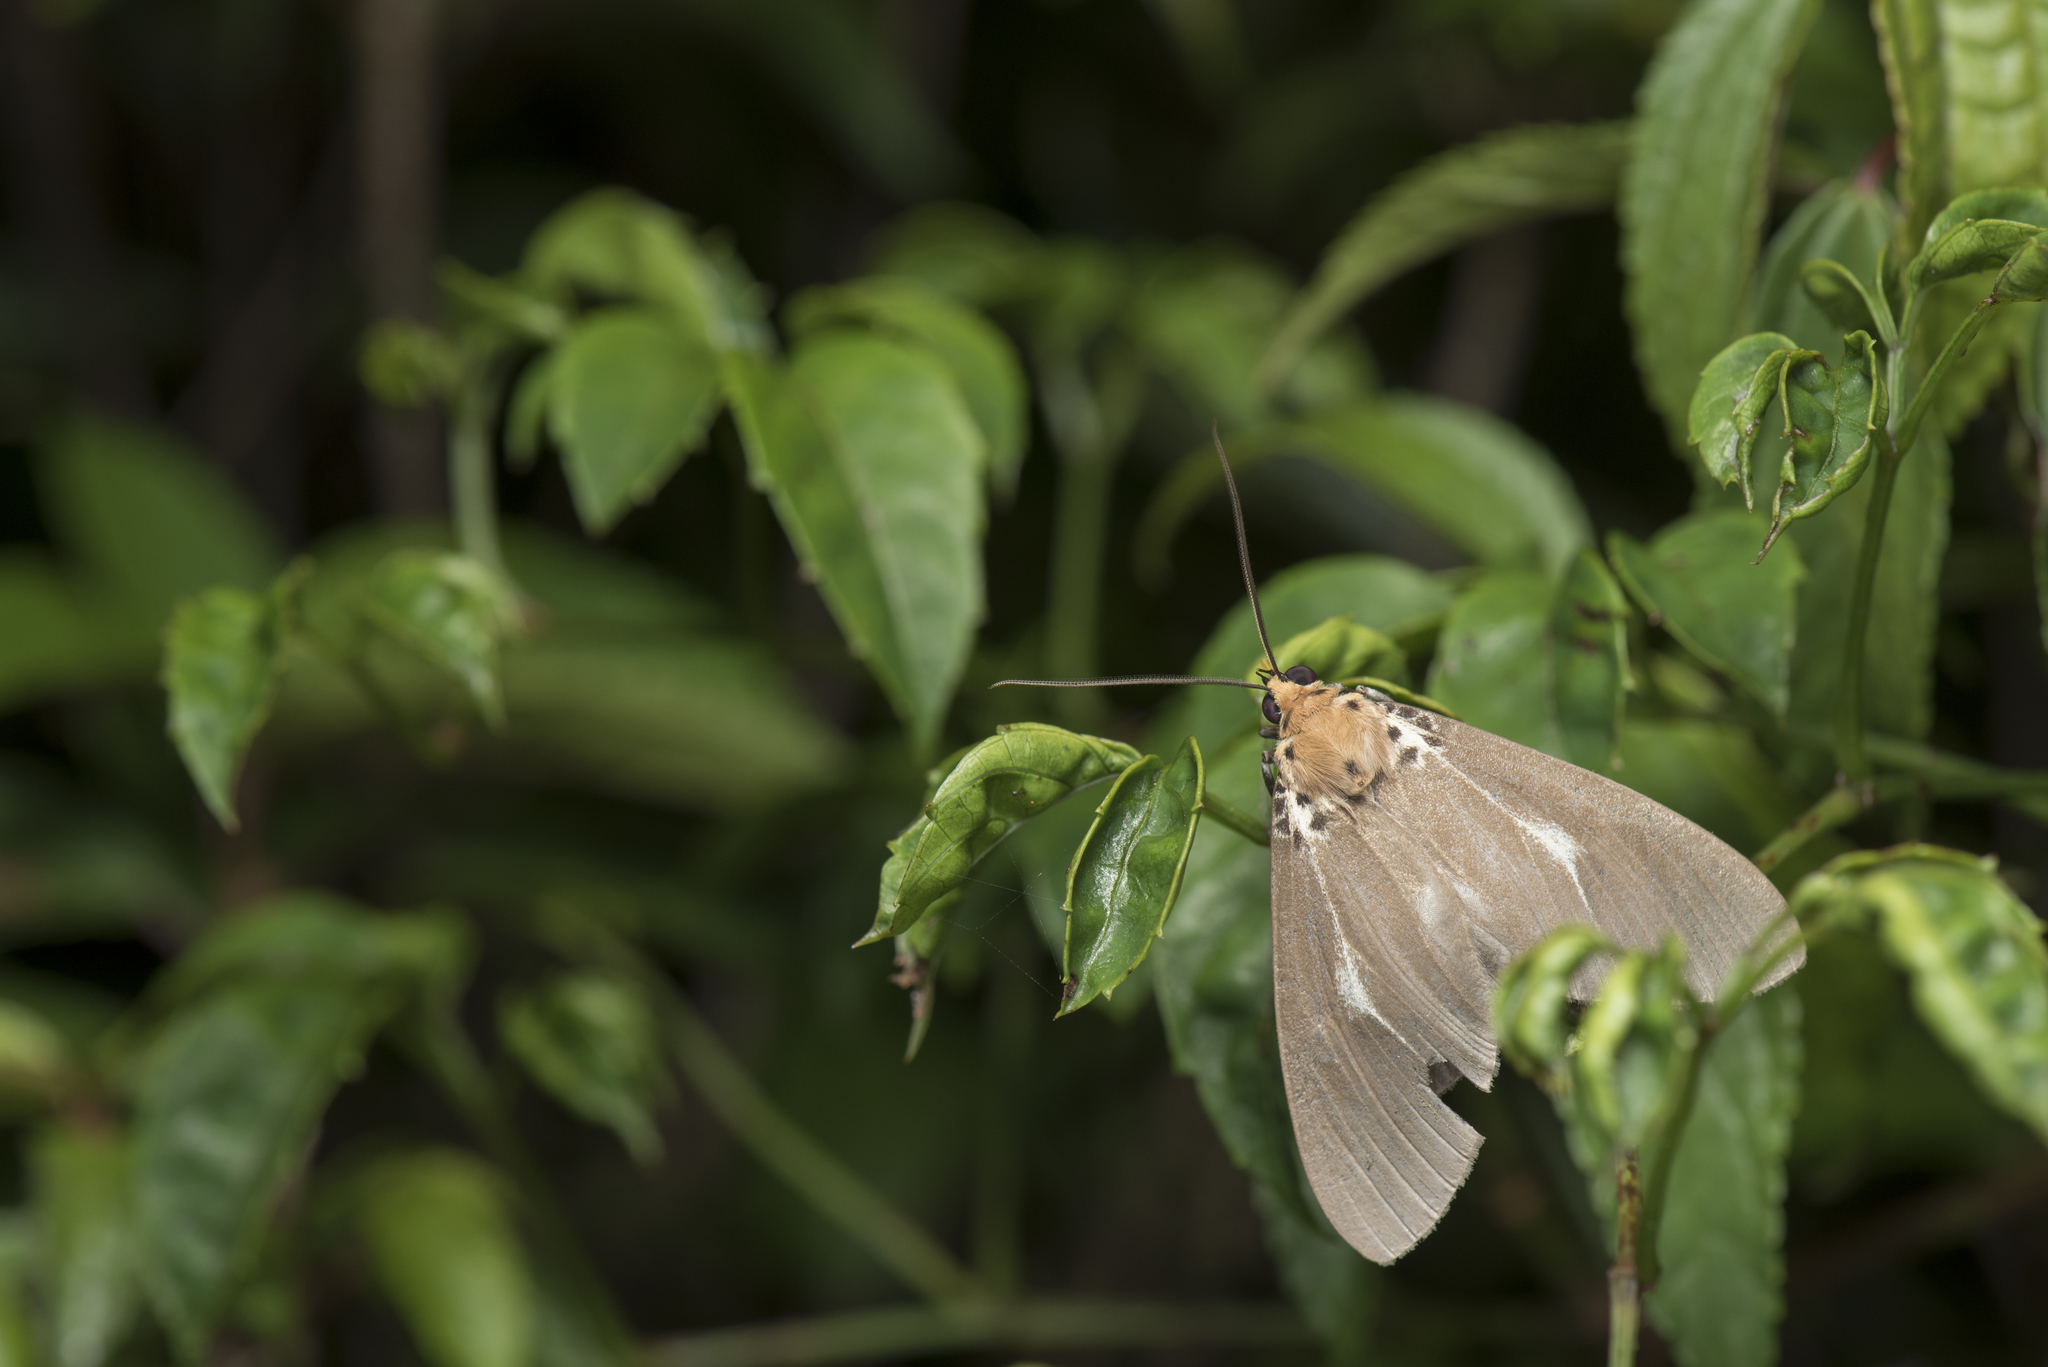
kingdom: Animalia
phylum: Arthropoda
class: Insecta
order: Lepidoptera
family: Erebidae
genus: Asota
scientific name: Asota heliconia
